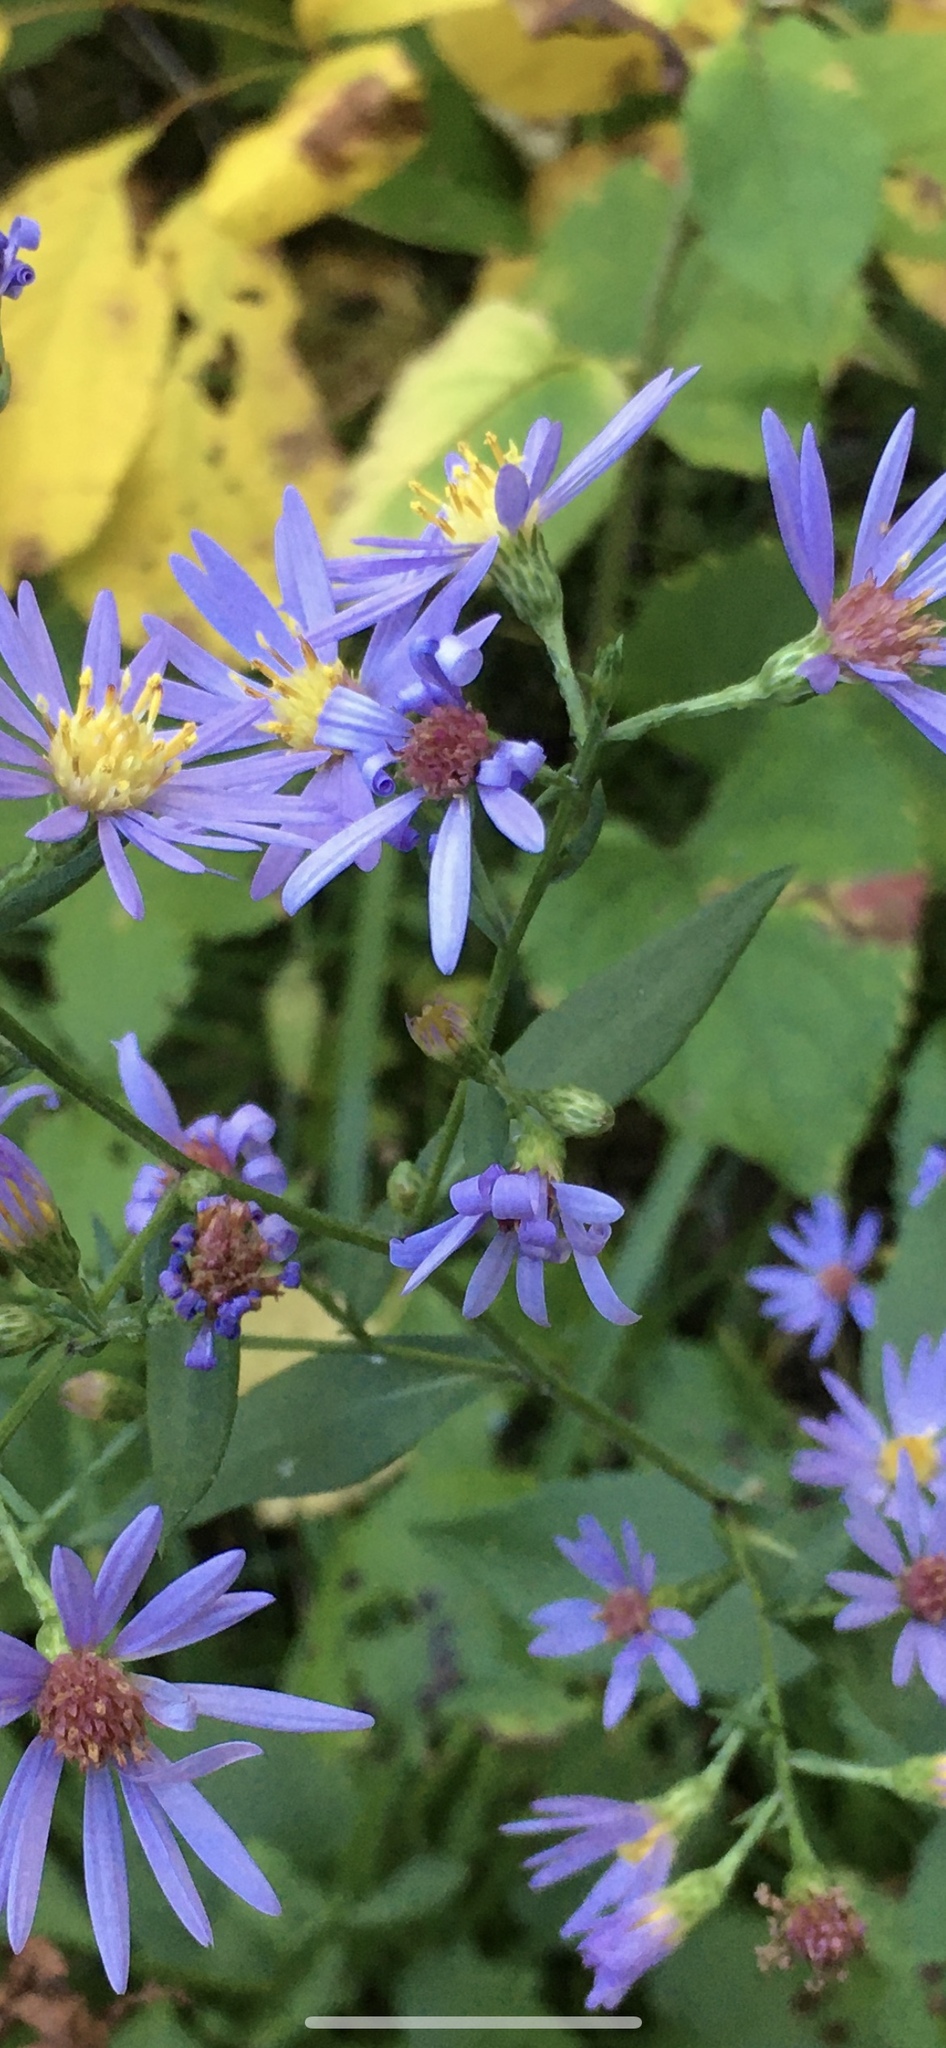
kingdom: Plantae
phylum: Tracheophyta
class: Magnoliopsida
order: Asterales
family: Asteraceae
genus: Symphyotrichum
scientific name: Symphyotrichum ciliolatum
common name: Fringed blue aster
